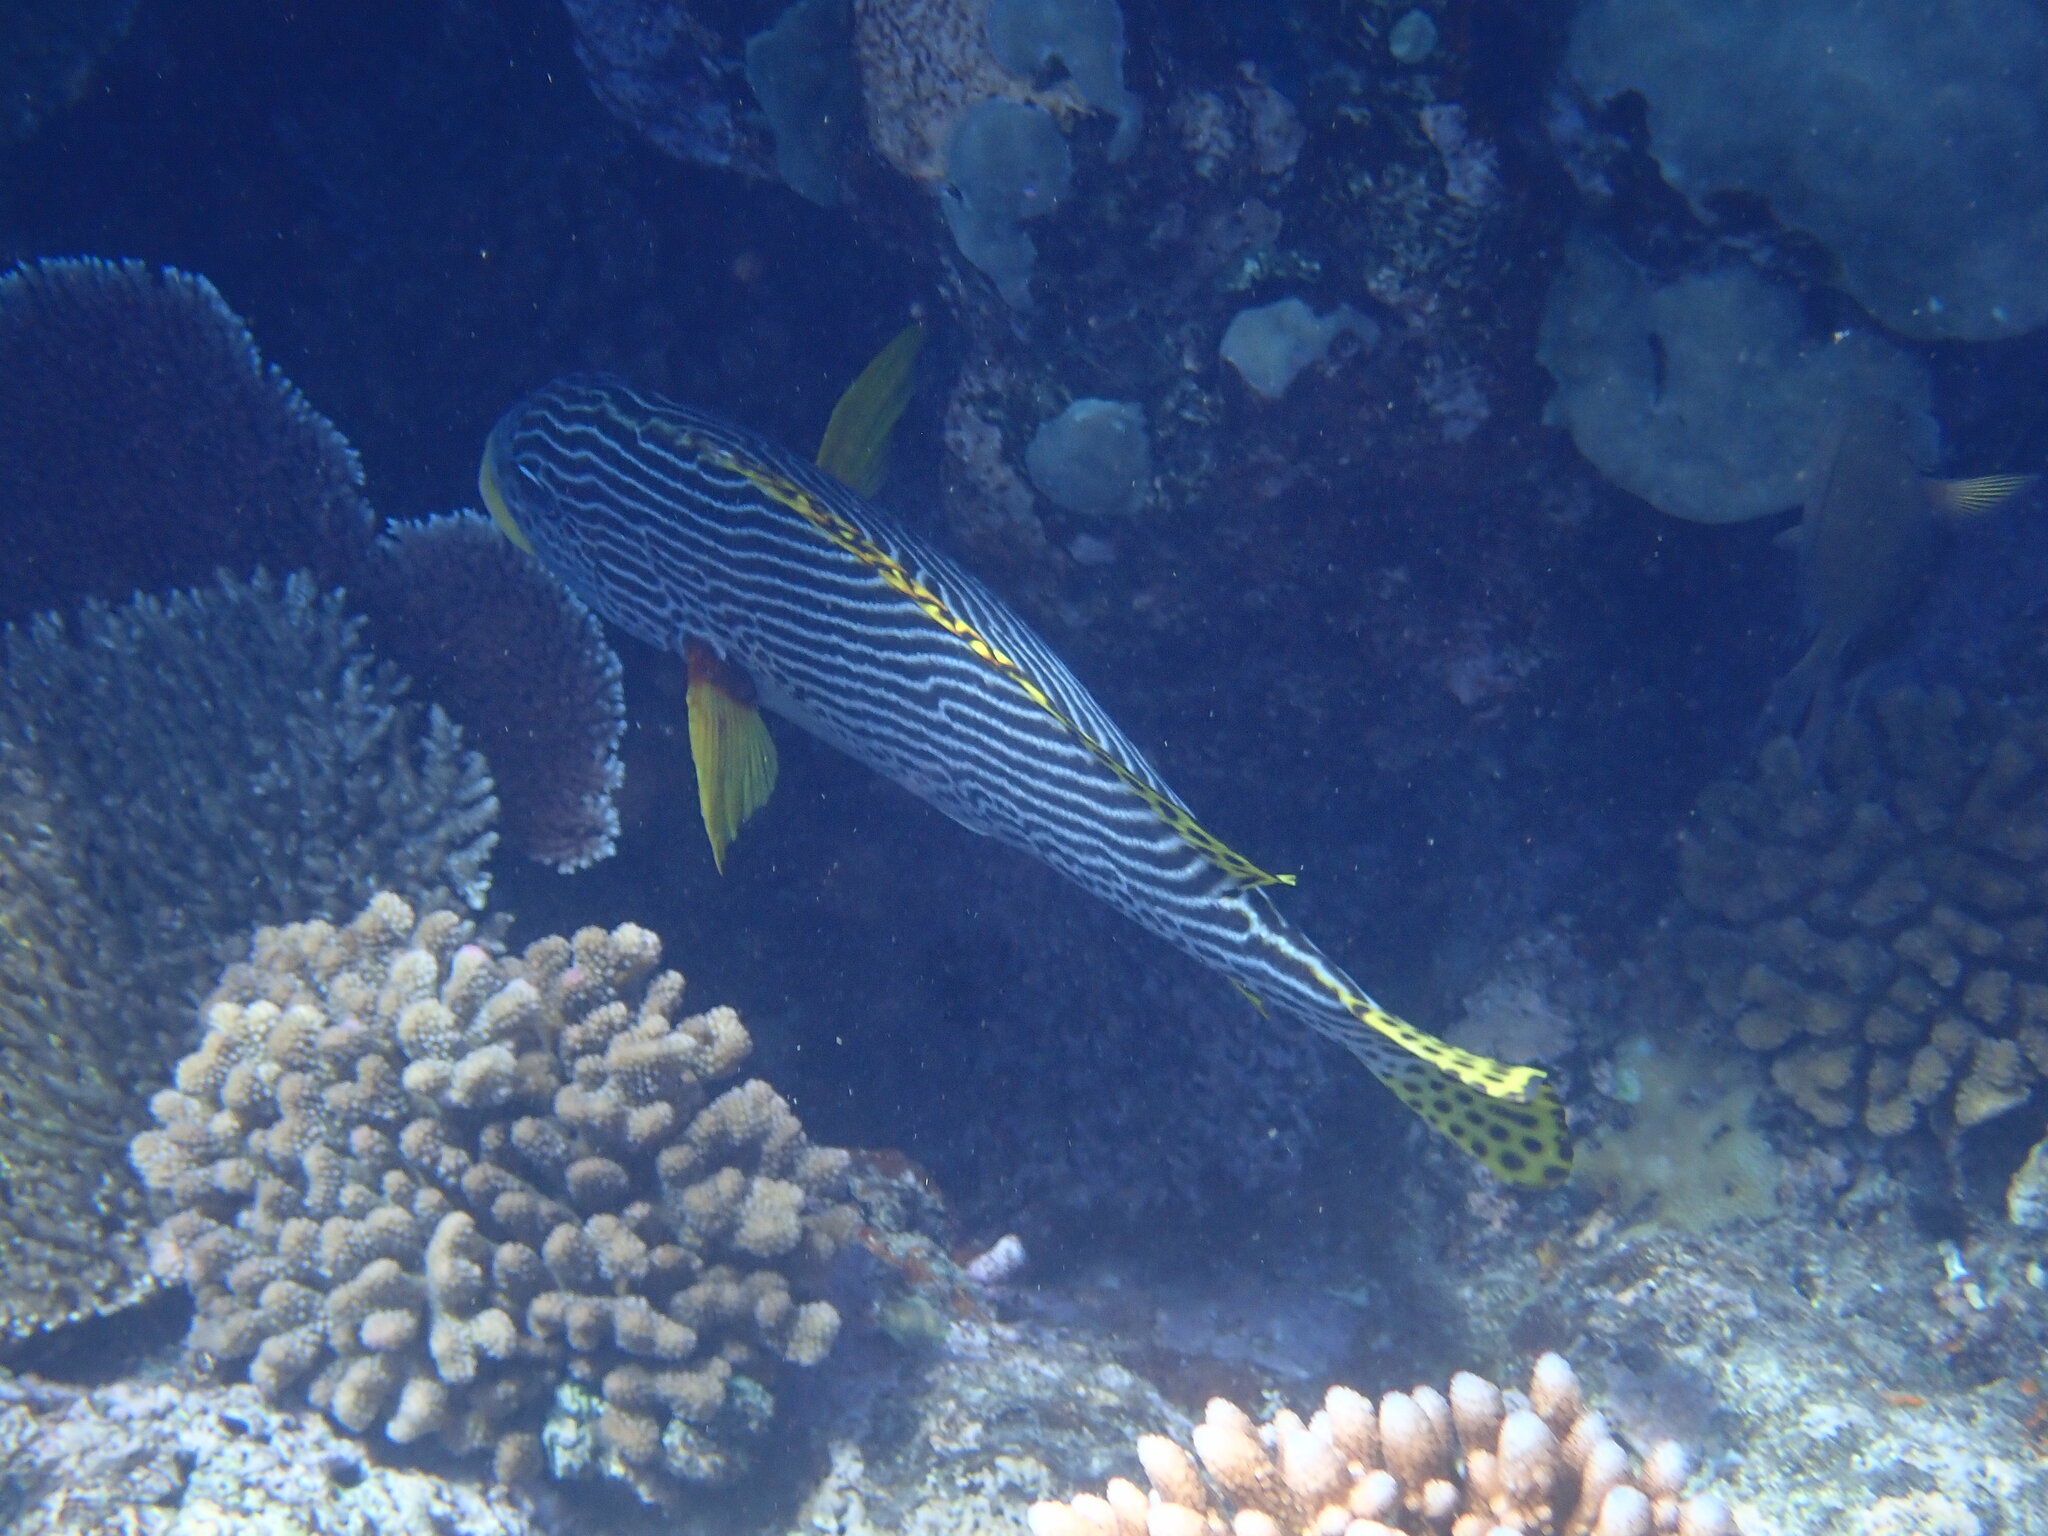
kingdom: Animalia
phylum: Chordata
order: Perciformes
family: Haemulidae
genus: Plectorhinchus
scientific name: Plectorhinchus lineatus
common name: Goldman's sweetlips
